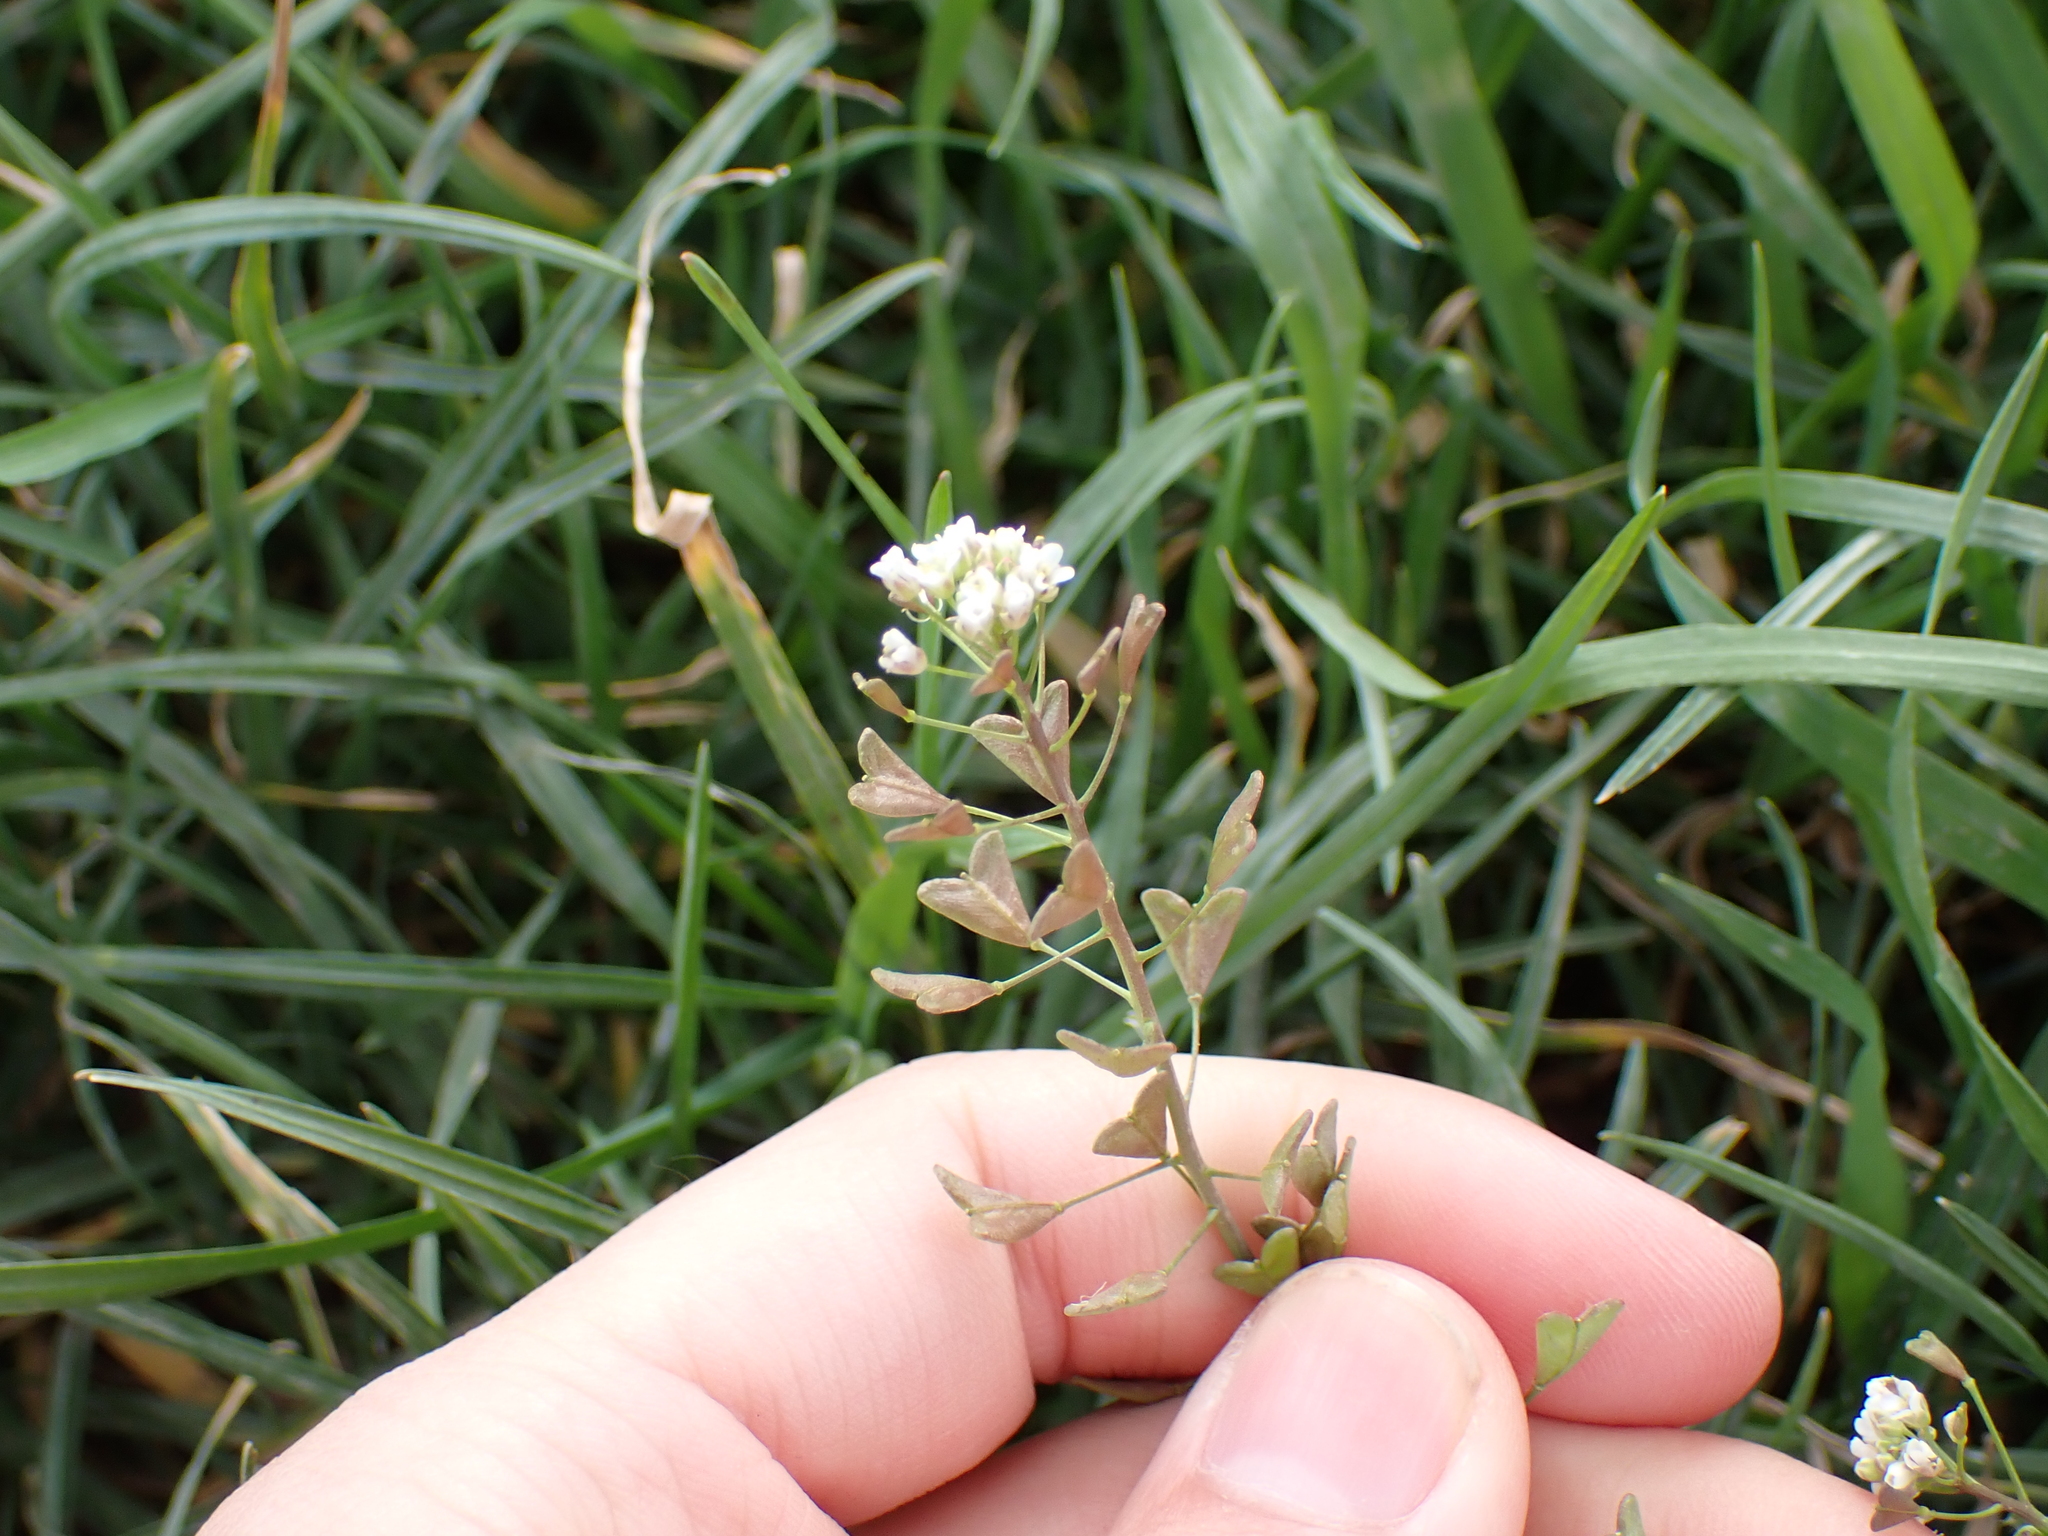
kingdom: Plantae
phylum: Tracheophyta
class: Magnoliopsida
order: Brassicales
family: Brassicaceae
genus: Capsella
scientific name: Capsella bursa-pastoris
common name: Shepherd's purse
